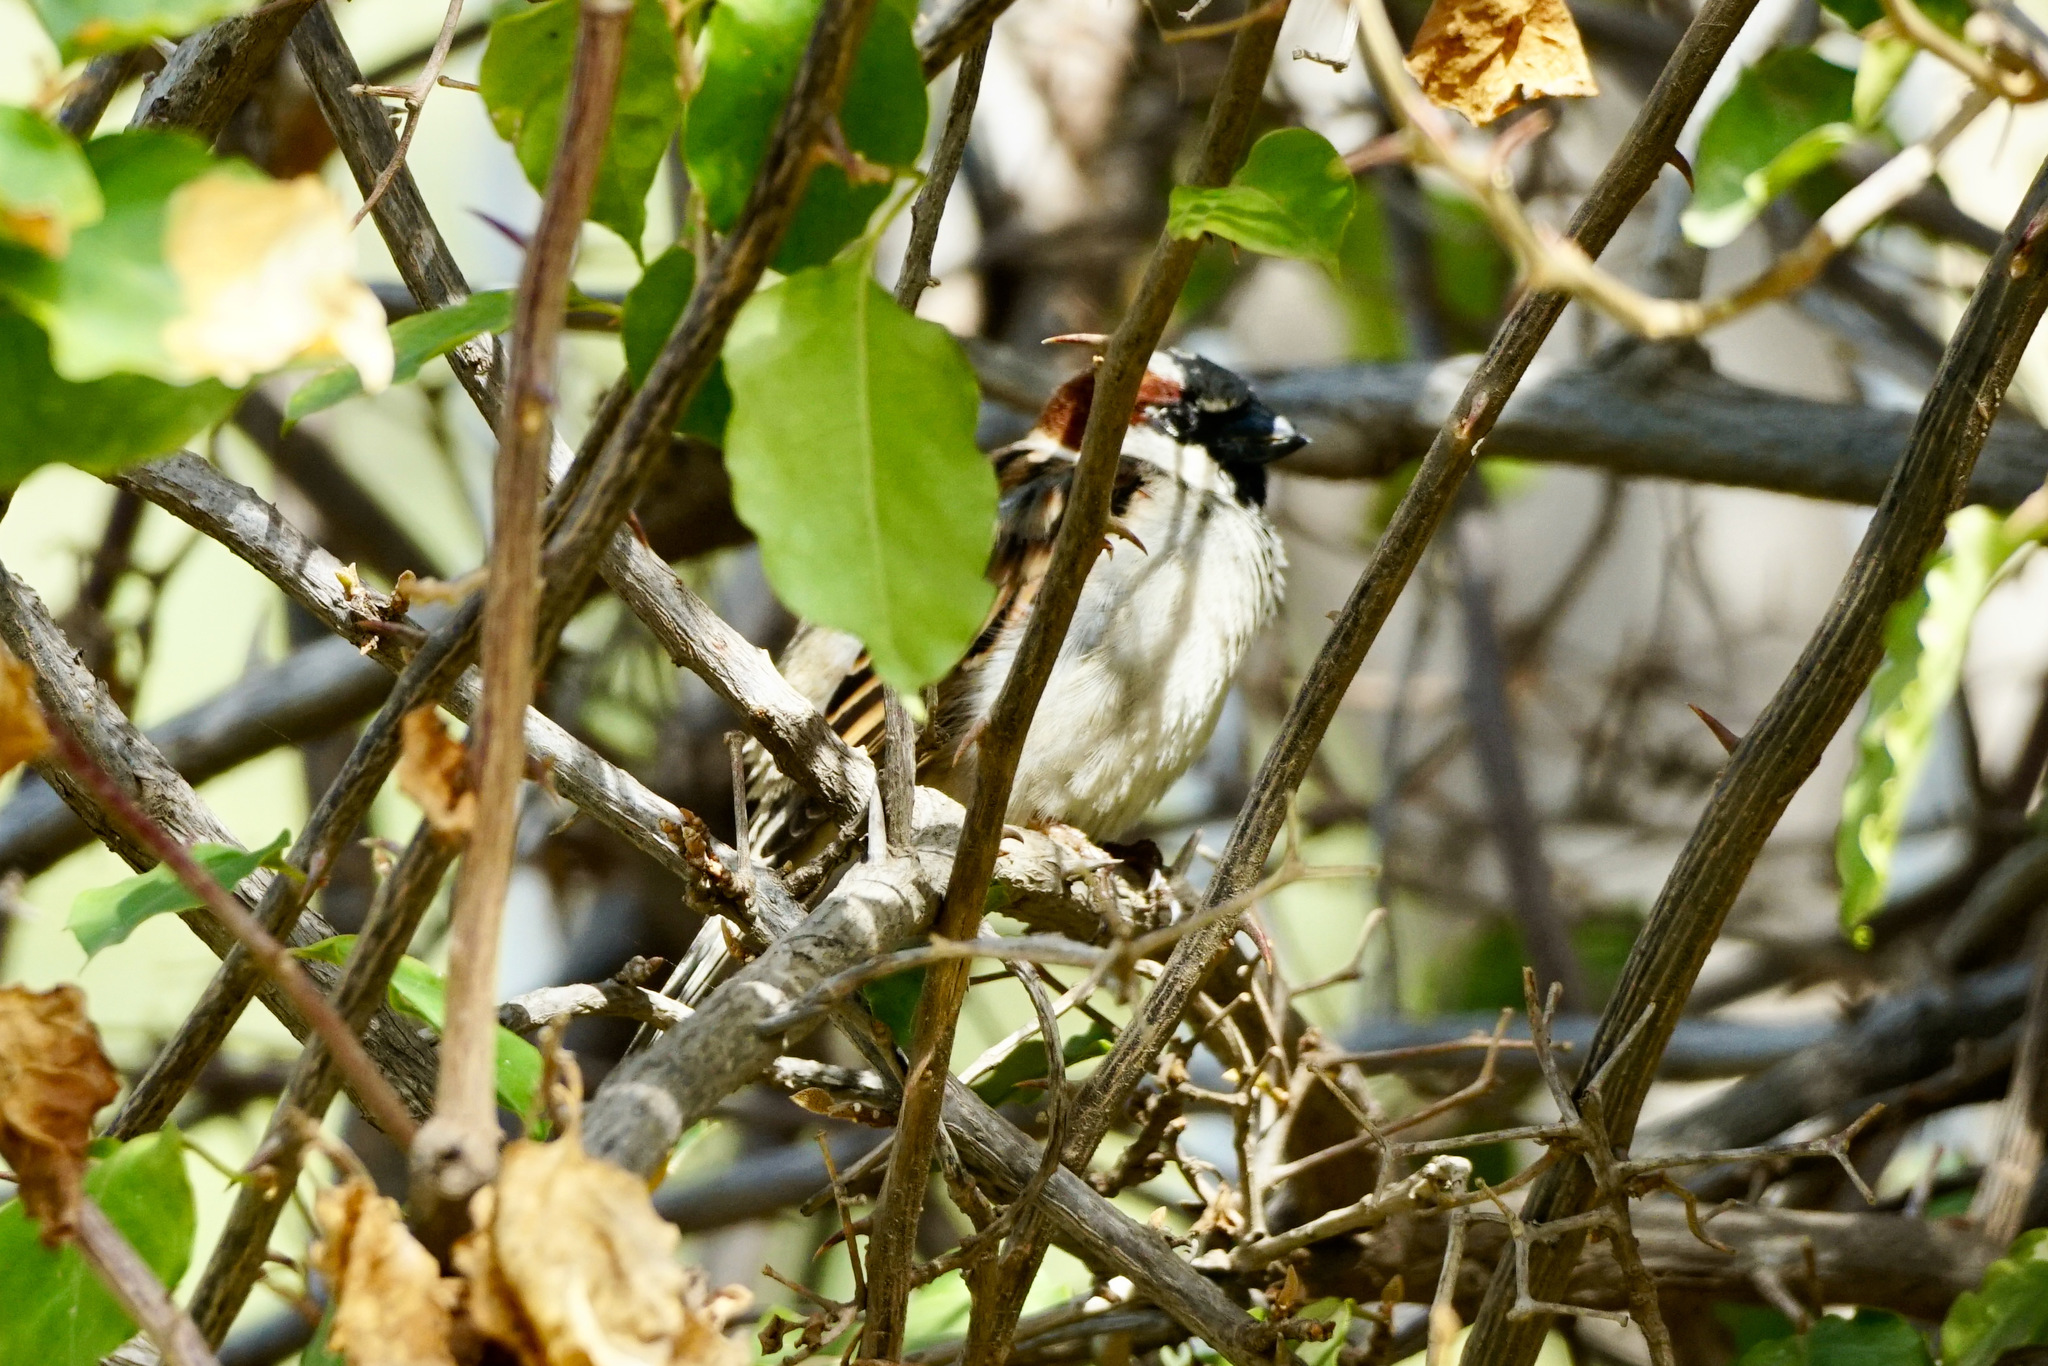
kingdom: Animalia
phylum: Chordata
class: Aves
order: Passeriformes
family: Passeridae
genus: Passer
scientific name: Passer domesticus
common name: House sparrow
